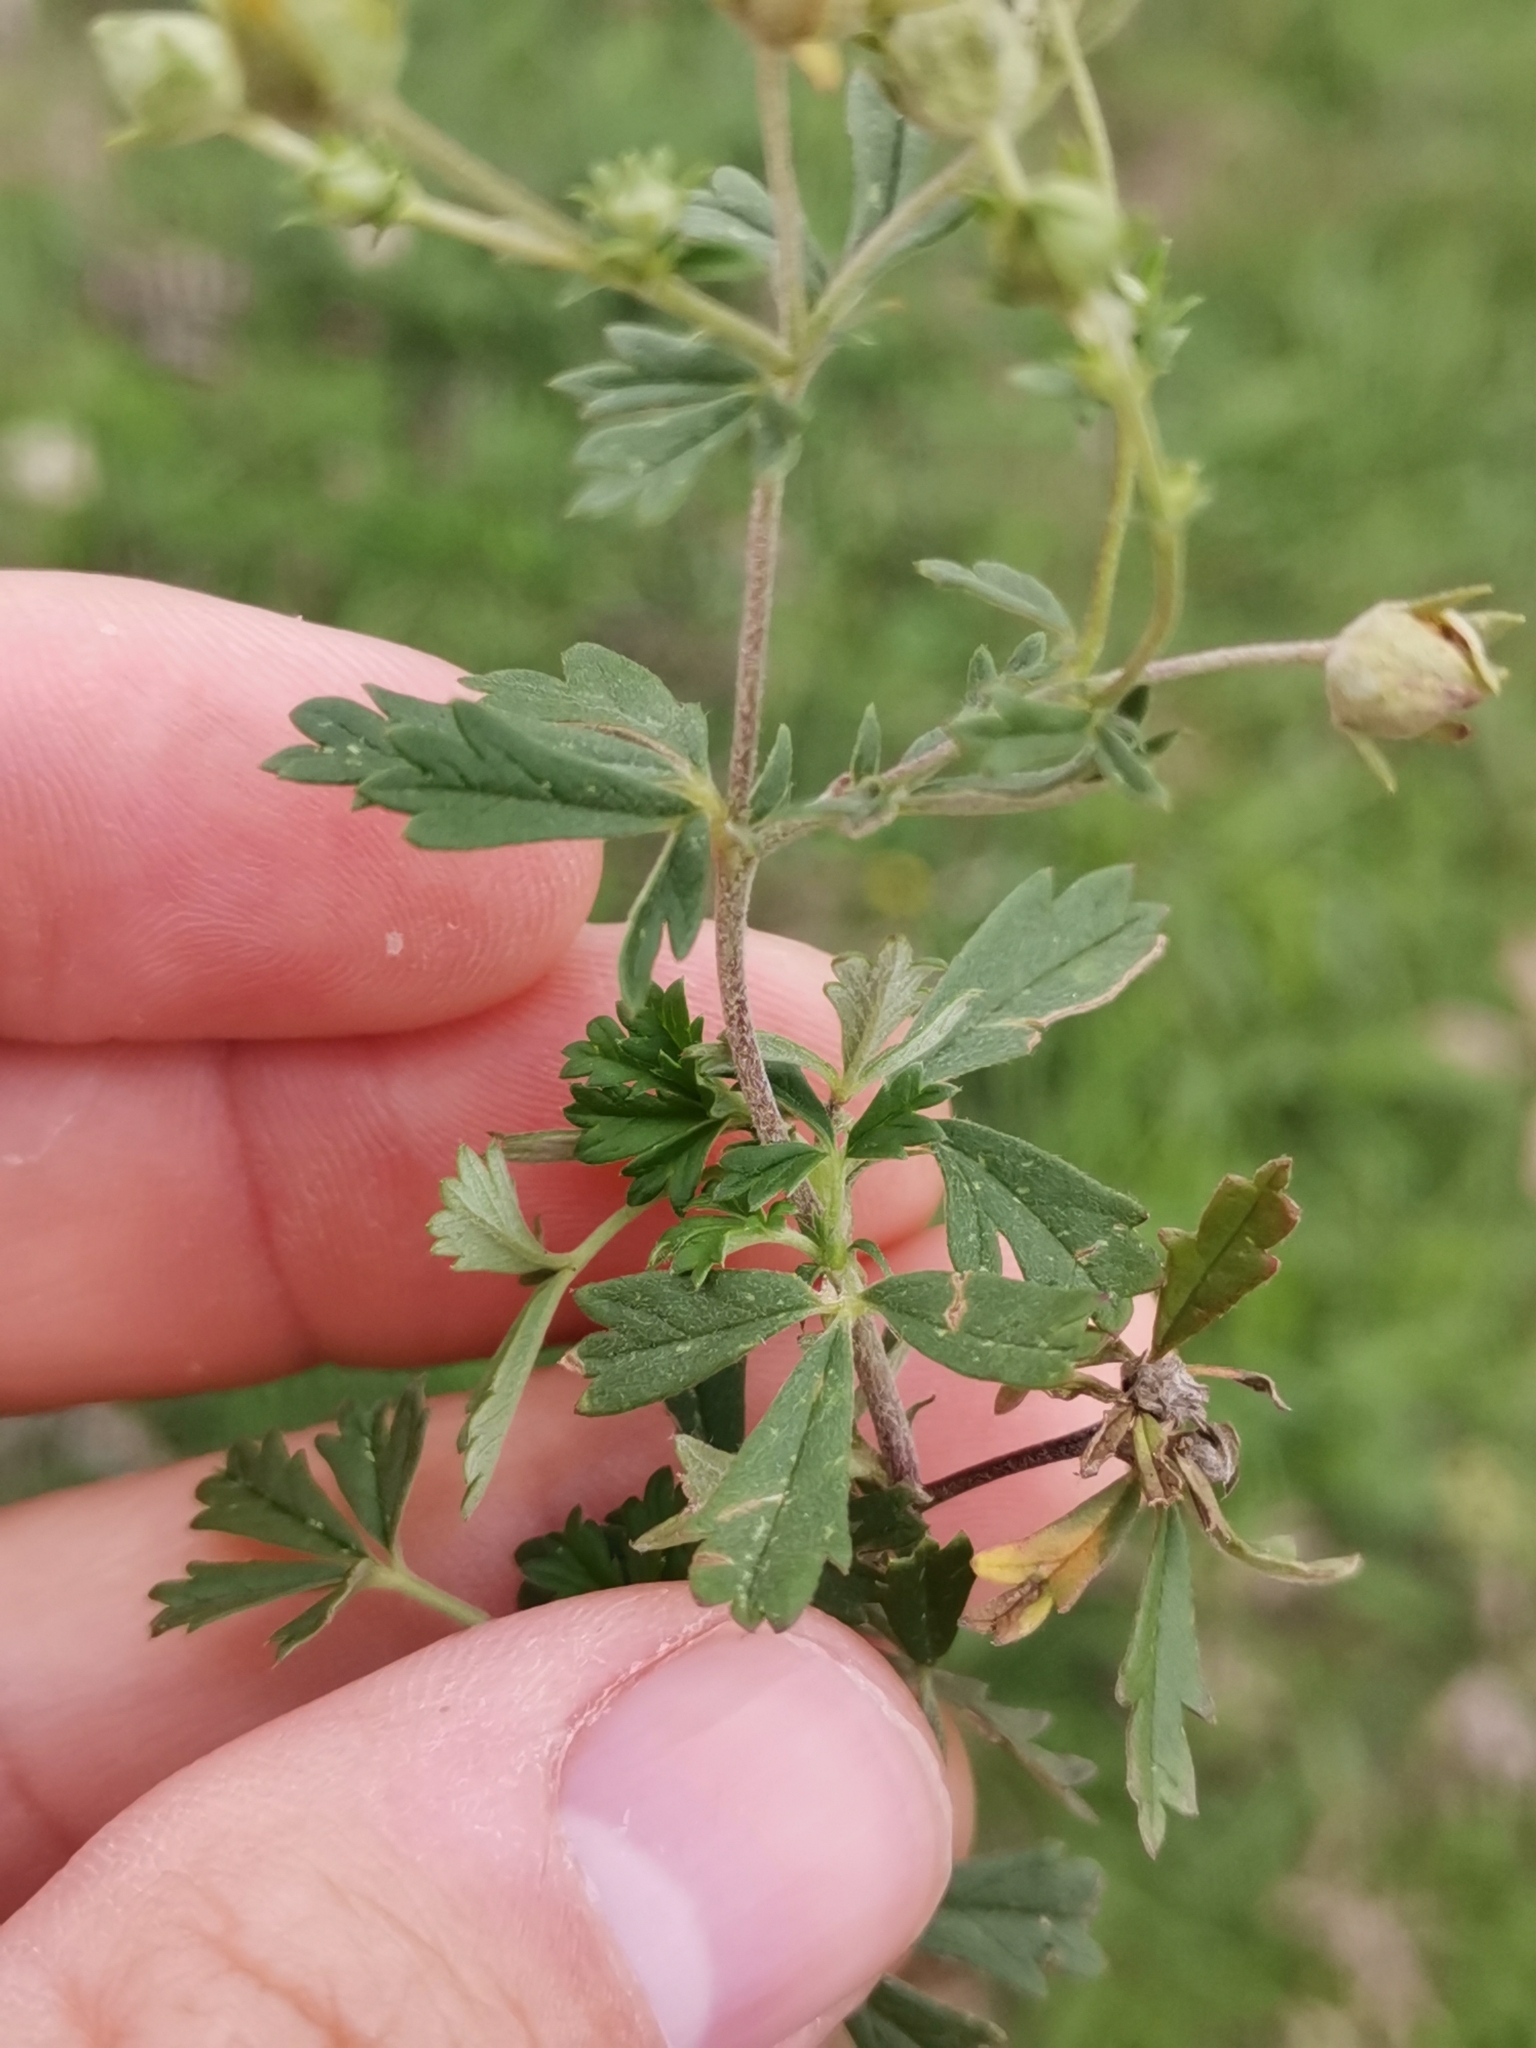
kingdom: Plantae
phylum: Tracheophyta
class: Magnoliopsida
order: Rosales
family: Rosaceae
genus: Potentilla
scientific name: Potentilla argentea
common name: Hoary cinquefoil
